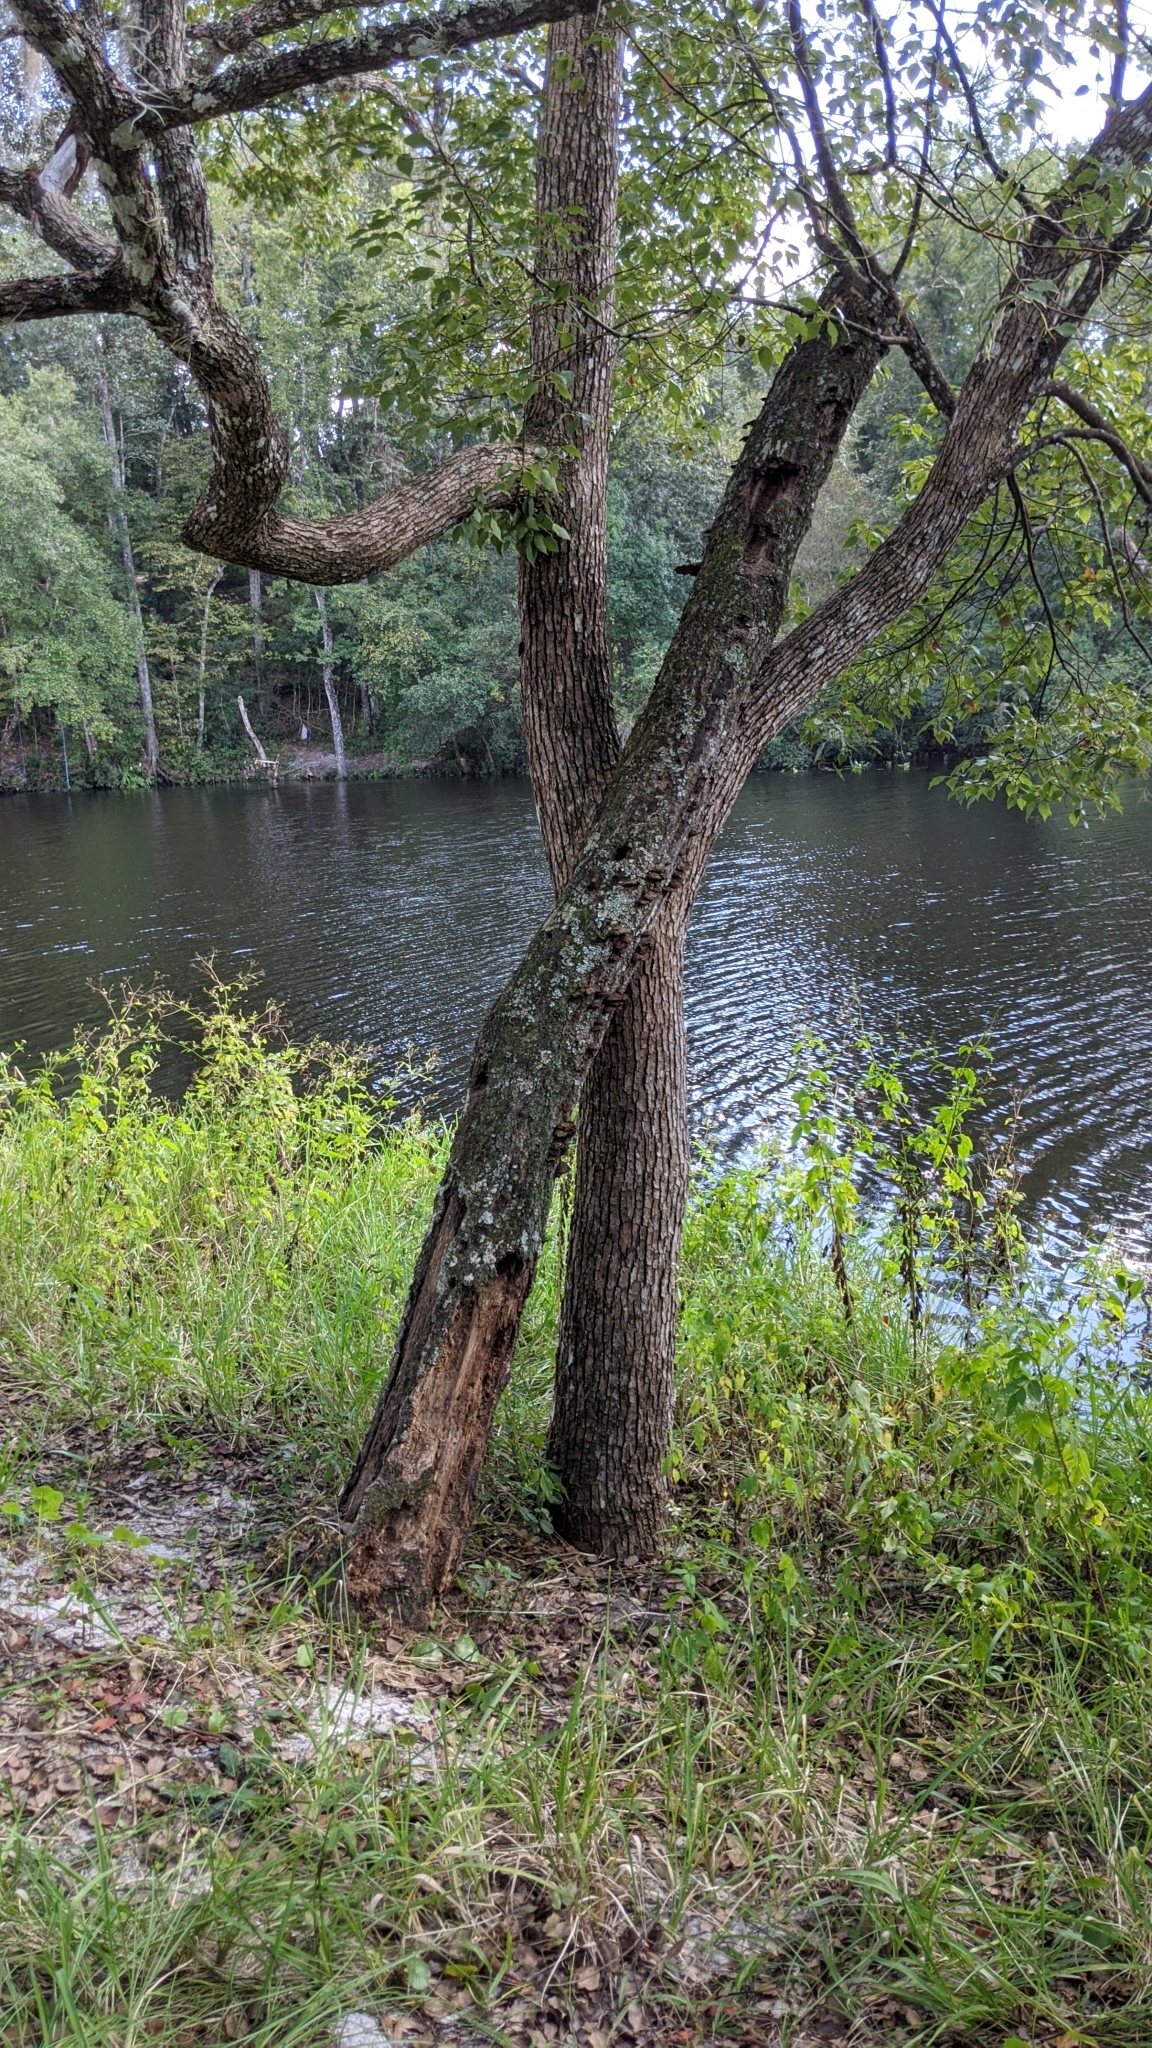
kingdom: Plantae
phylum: Tracheophyta
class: Magnoliopsida
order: Laurales
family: Lauraceae
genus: Cinnamomum
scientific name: Cinnamomum camphora
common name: Camphortree
